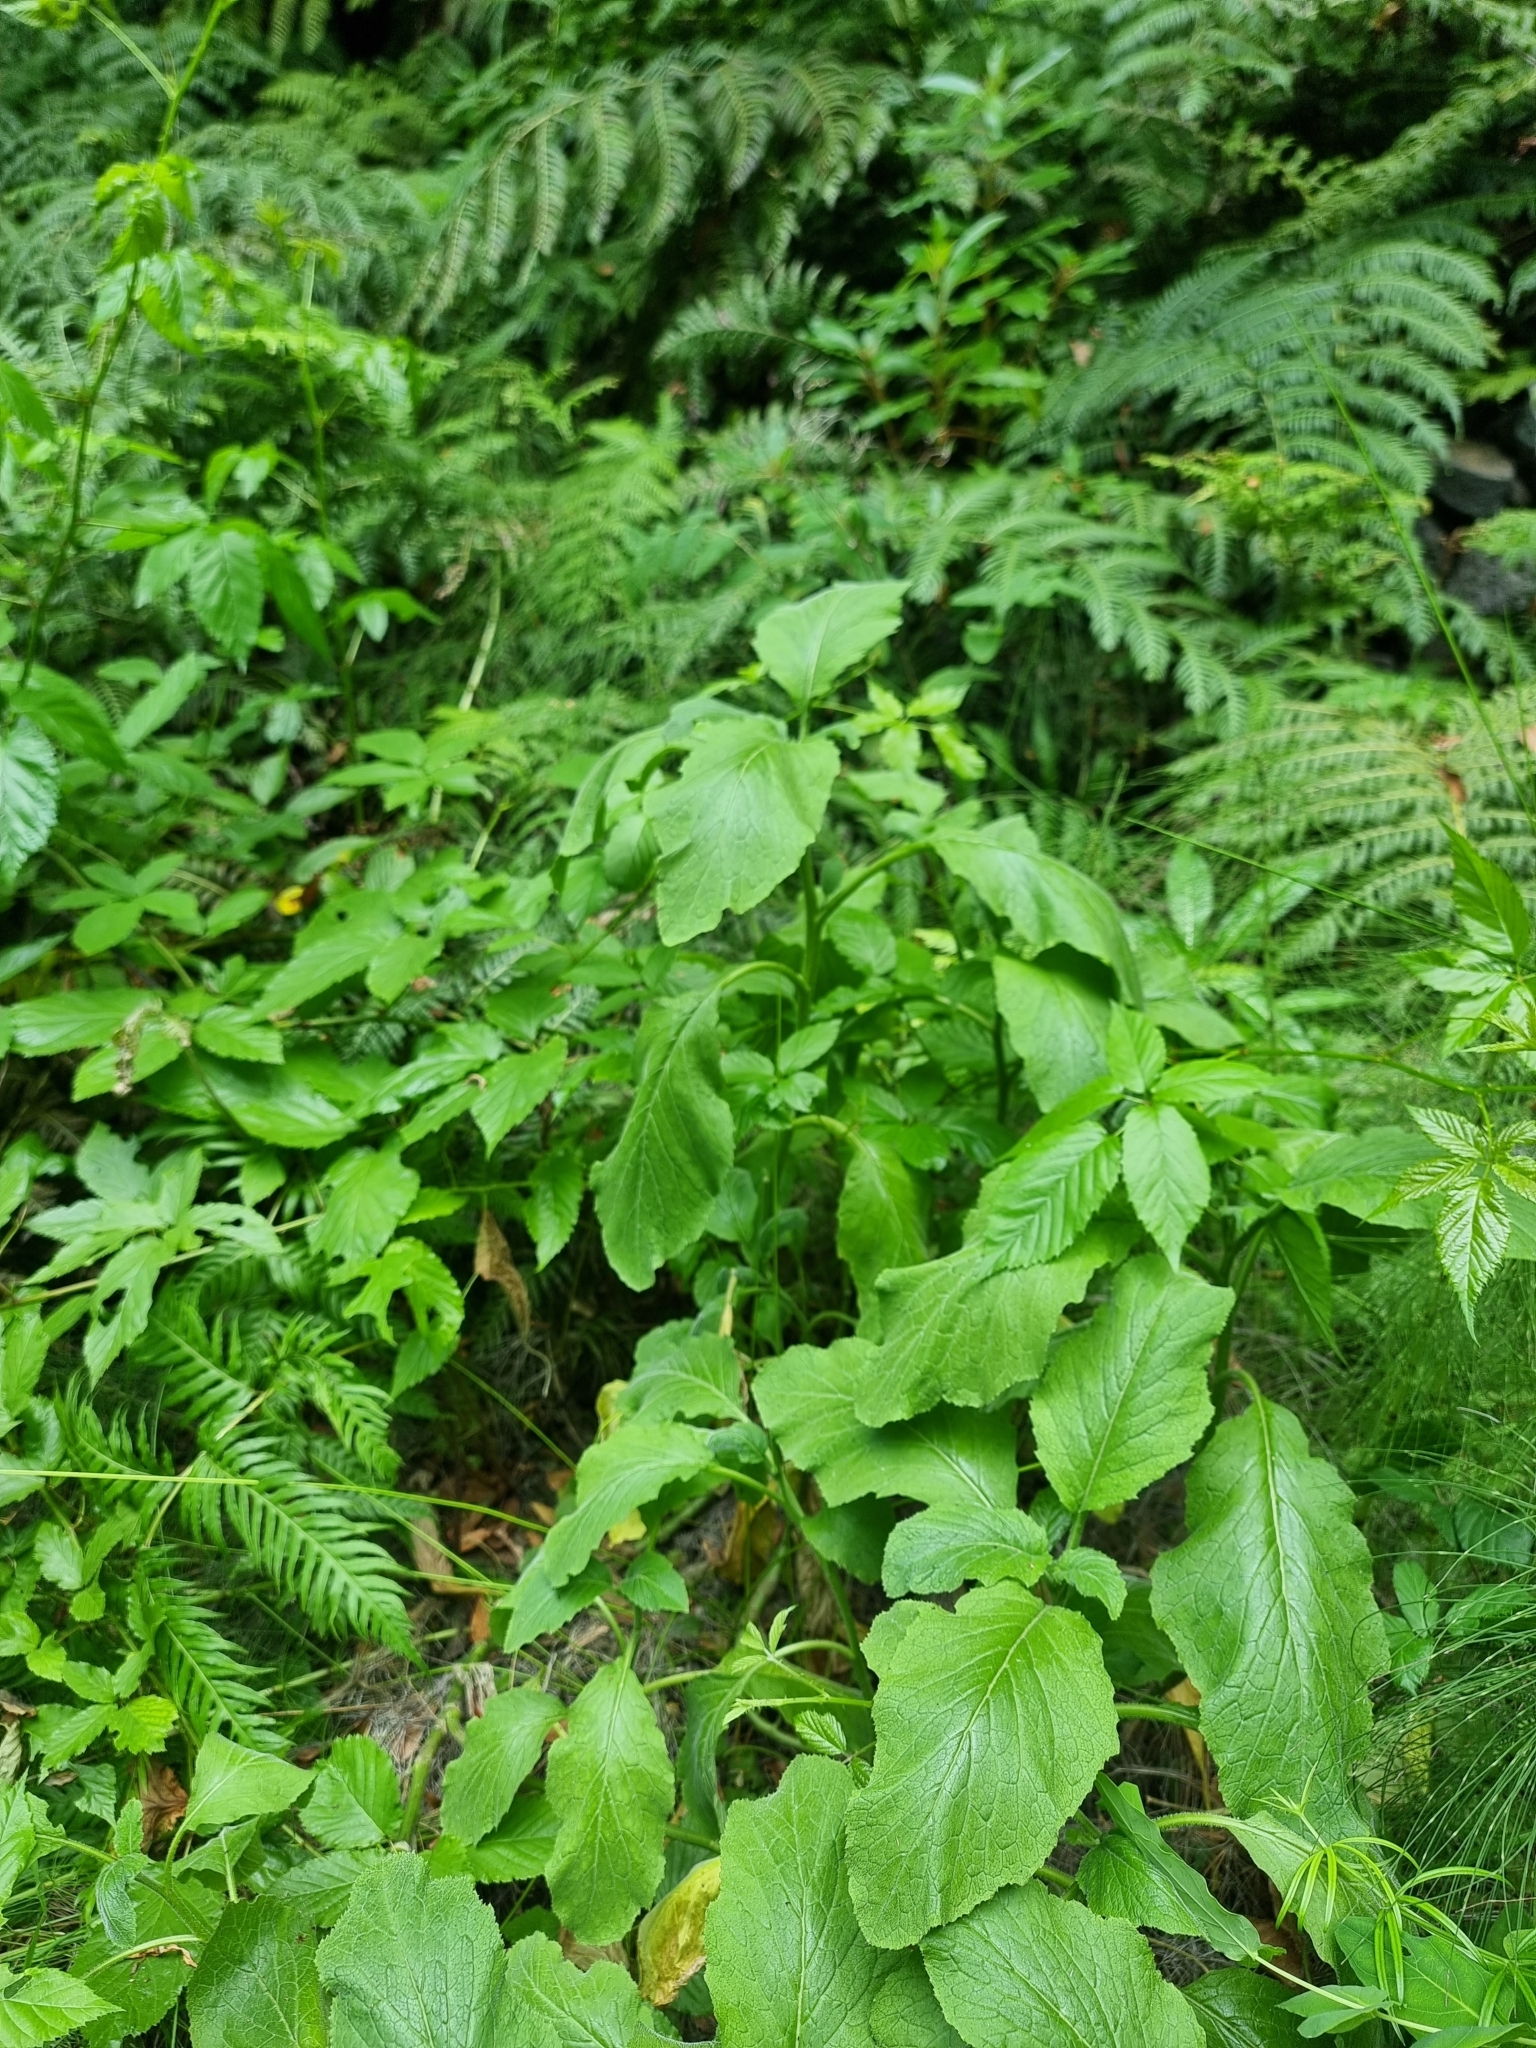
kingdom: Plantae
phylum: Tracheophyta
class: Magnoliopsida
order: Brassicales
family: Brassicaceae
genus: Sinapidendron
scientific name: Sinapidendron rupestre
